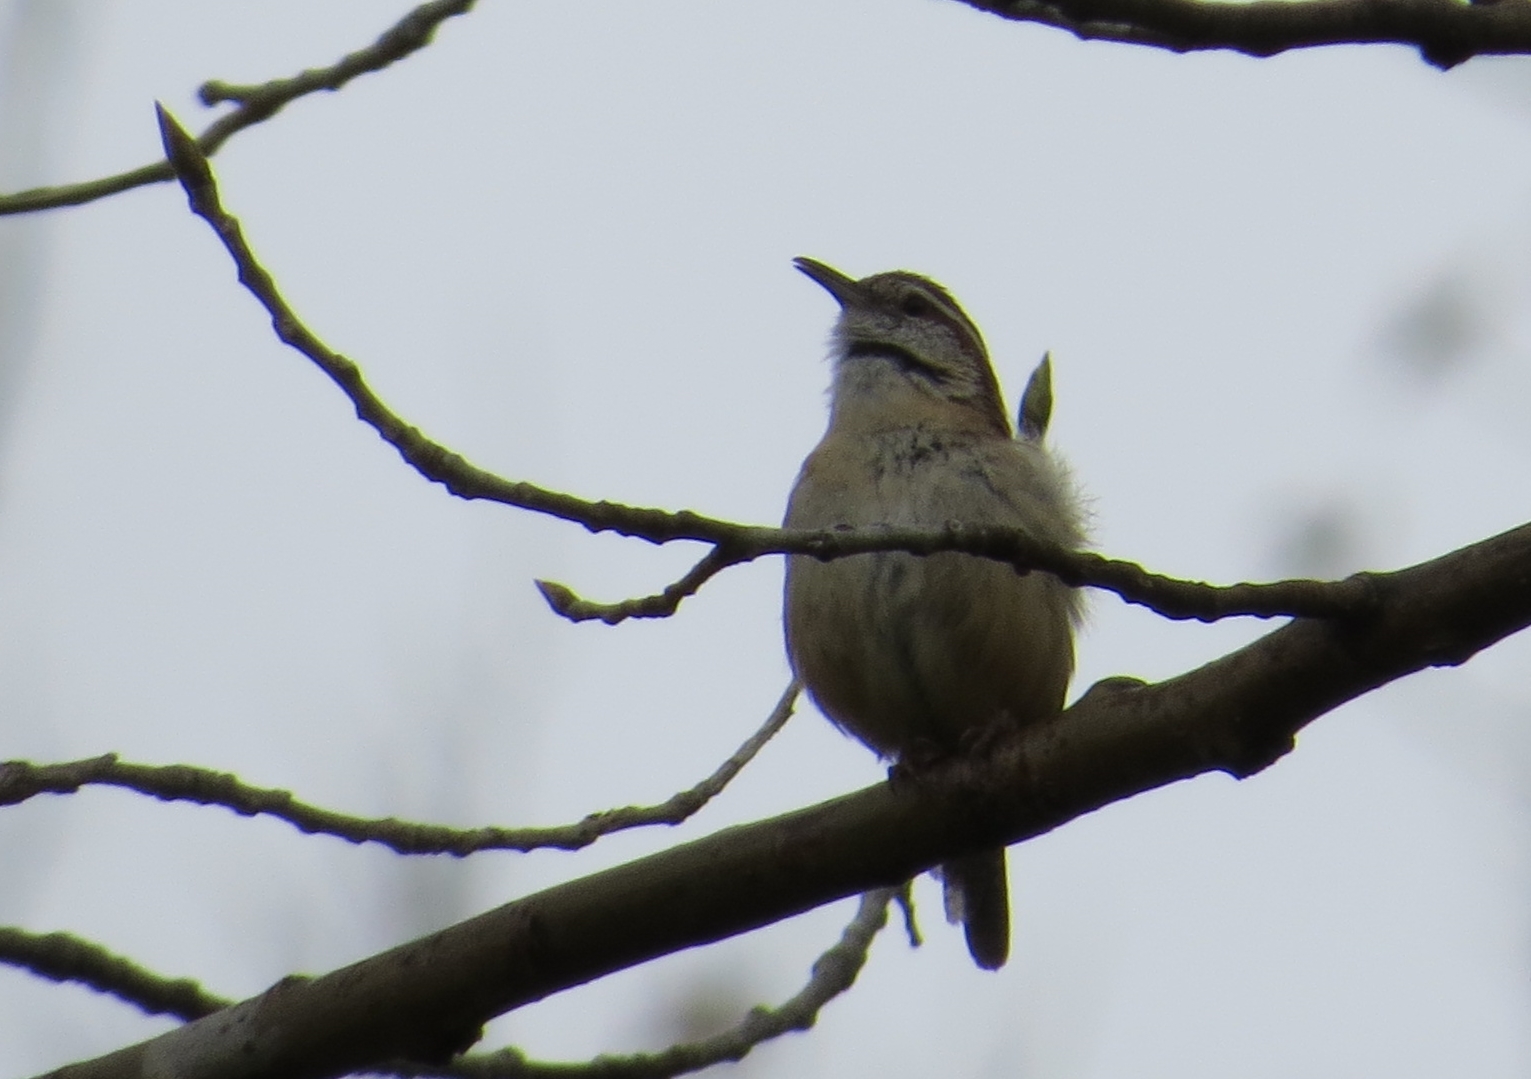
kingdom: Animalia
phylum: Chordata
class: Aves
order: Passeriformes
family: Troglodytidae
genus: Thryothorus
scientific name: Thryothorus ludovicianus
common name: Carolina wren
